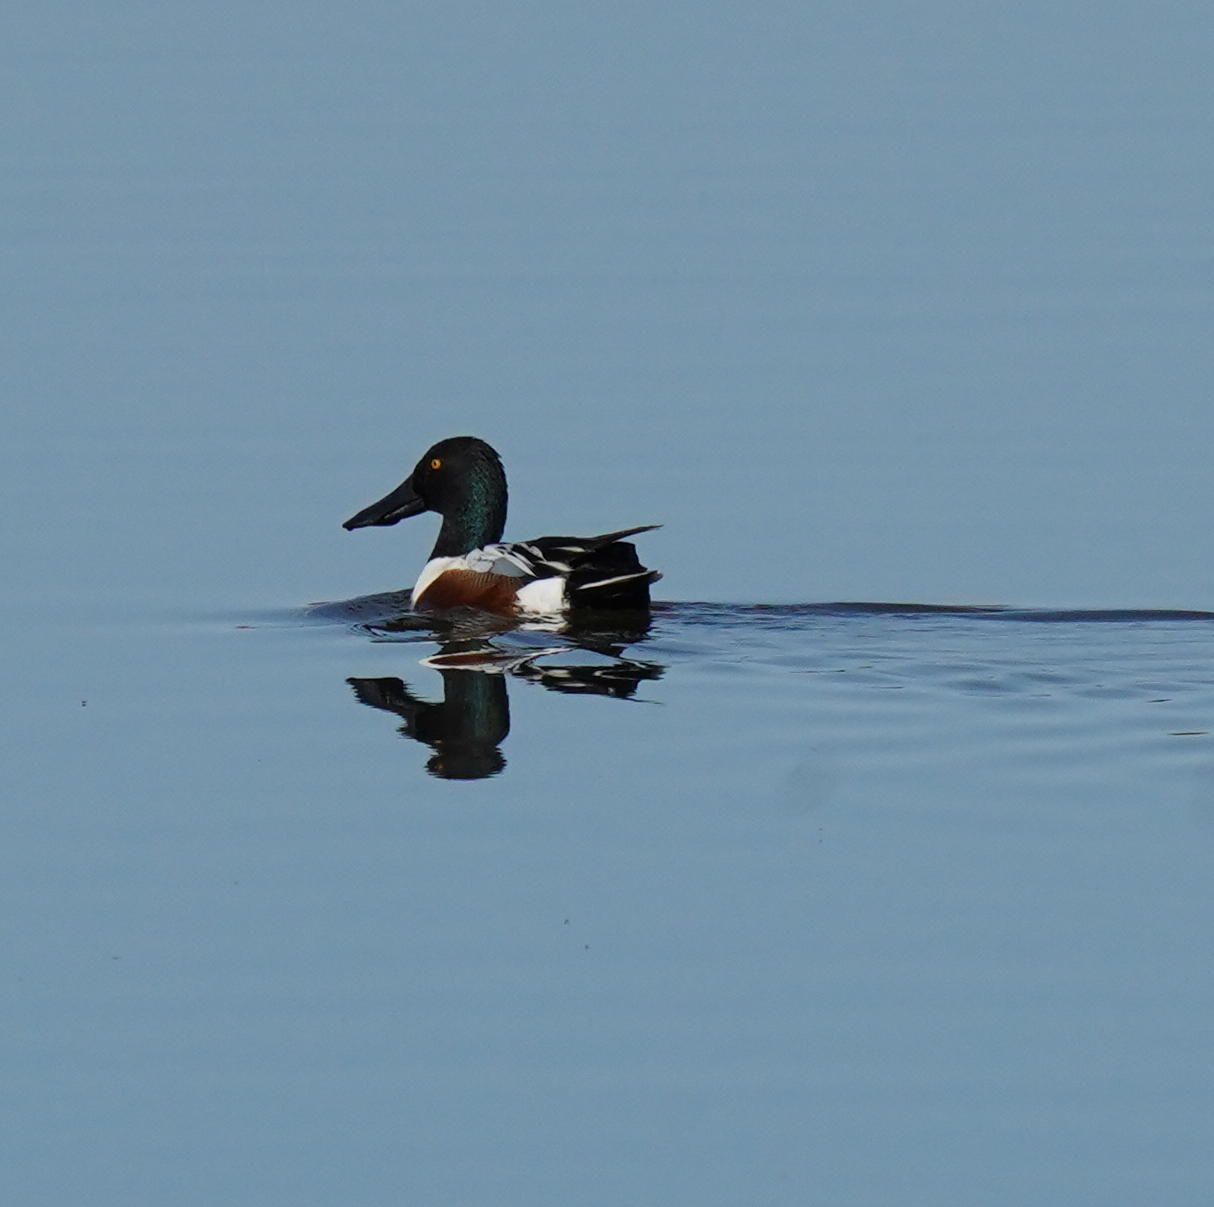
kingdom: Animalia
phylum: Chordata
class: Aves
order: Anseriformes
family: Anatidae
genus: Spatula
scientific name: Spatula clypeata
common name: Northern shoveler
